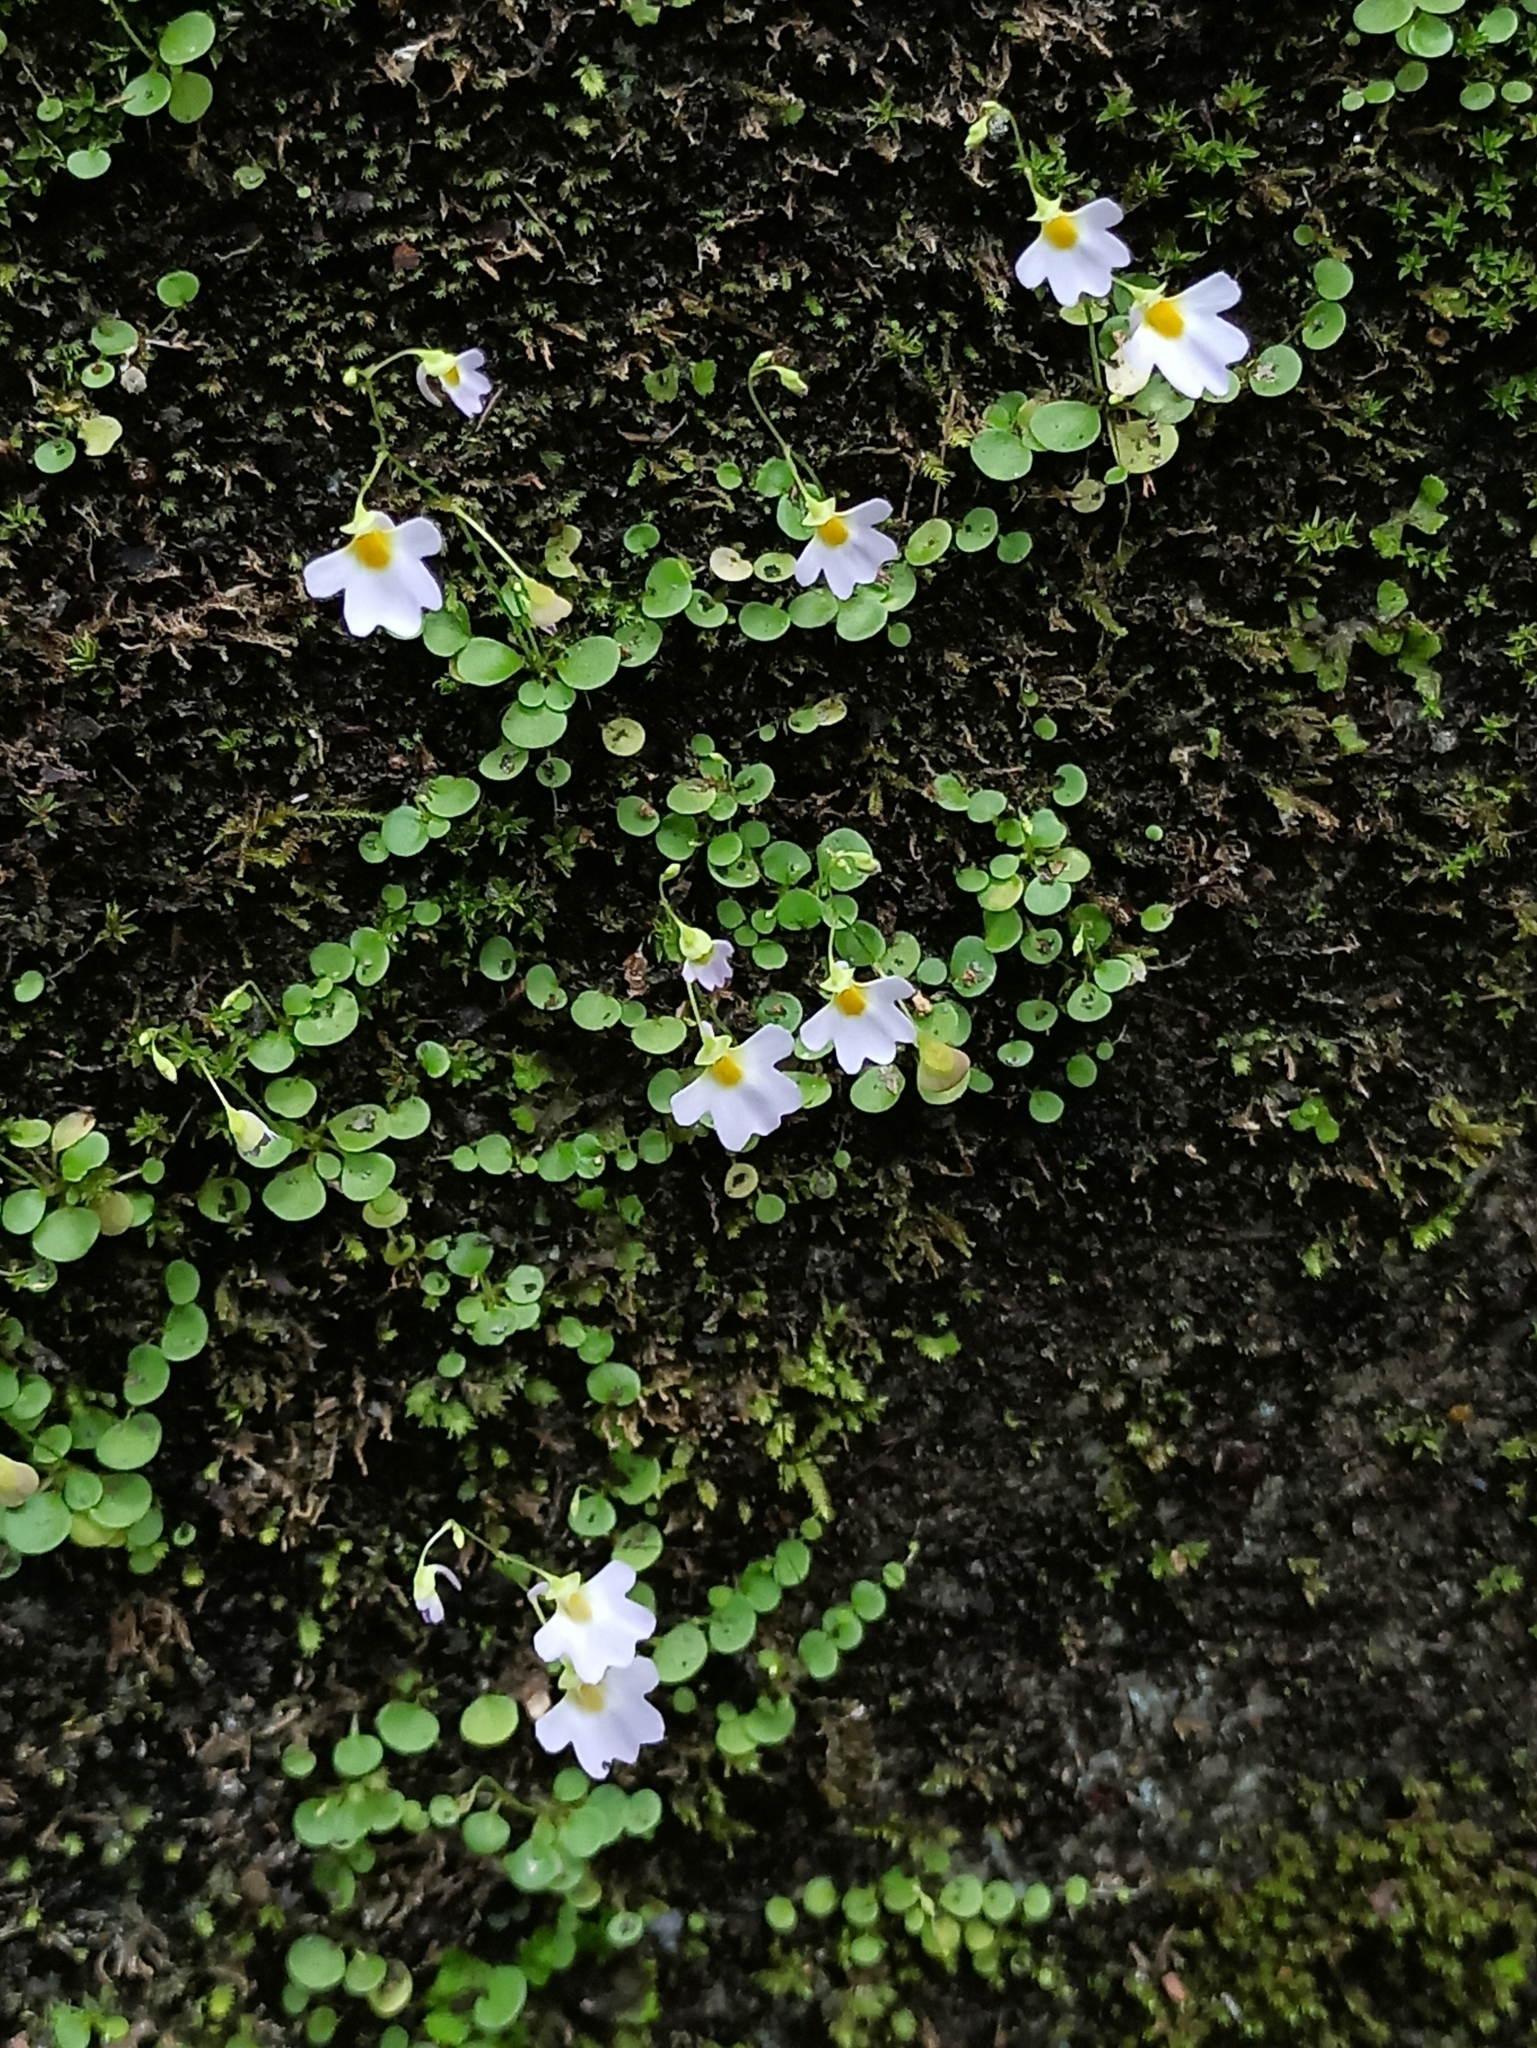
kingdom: Plantae
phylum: Tracheophyta
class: Magnoliopsida
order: Lamiales
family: Lentibulariaceae
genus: Utricularia
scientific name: Utricularia striatula
